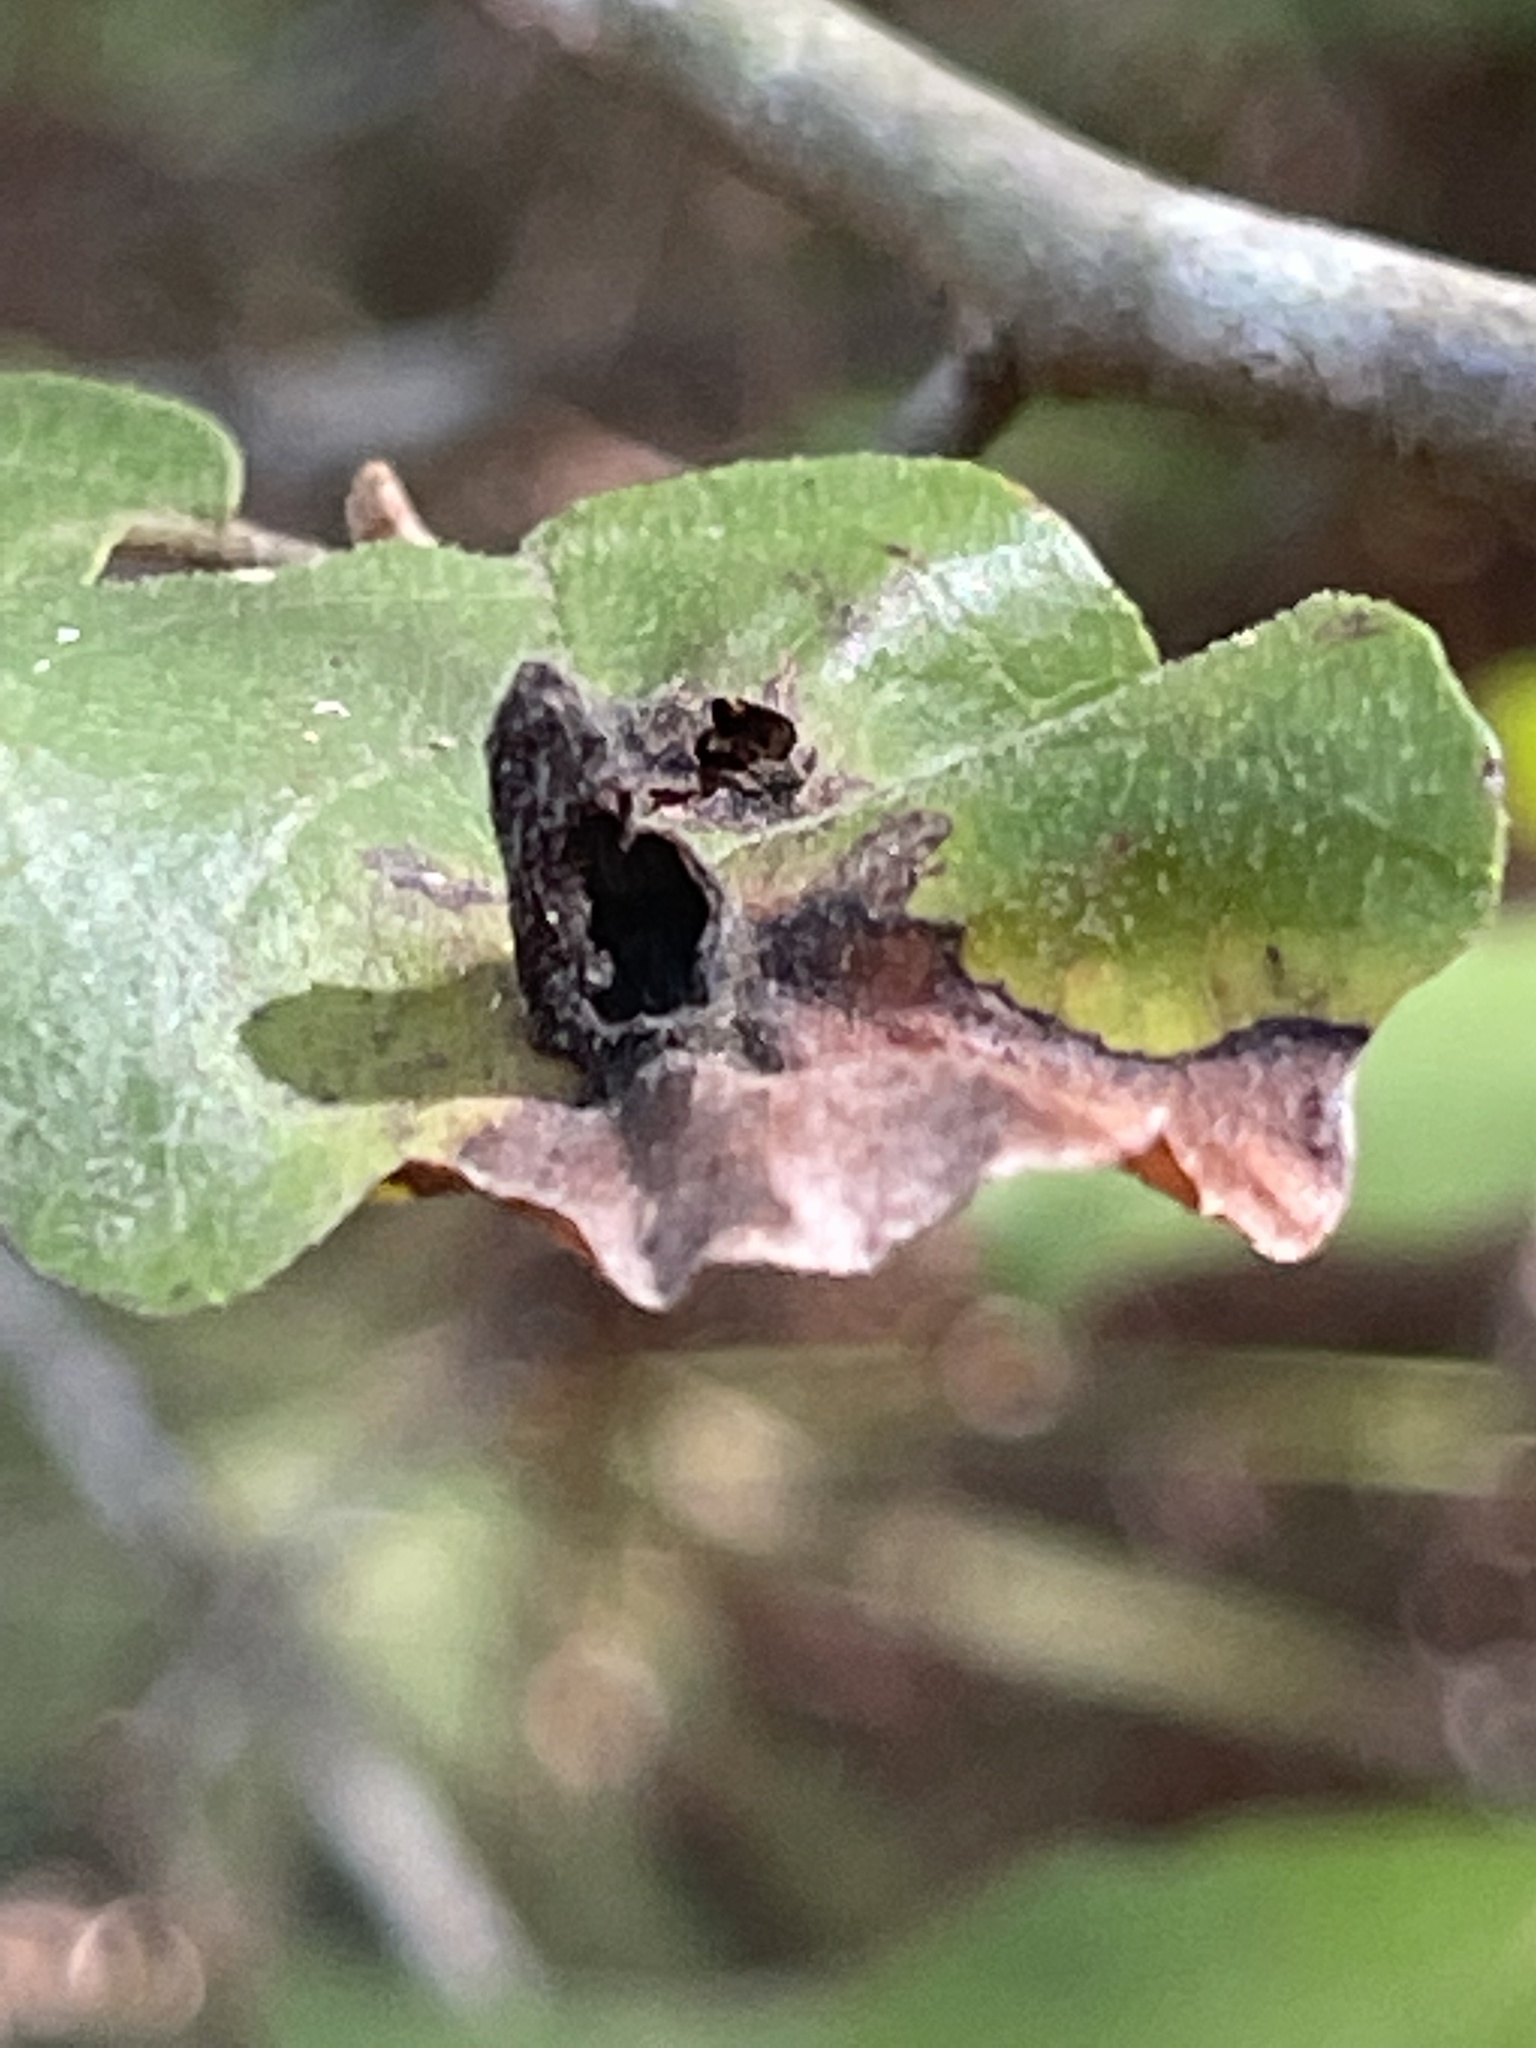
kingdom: Animalia
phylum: Arthropoda
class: Insecta
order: Hemiptera
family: Aphididae
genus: Hormaphis
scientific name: Hormaphis hamamelidis
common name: Witch-hazel cone gall aphid
